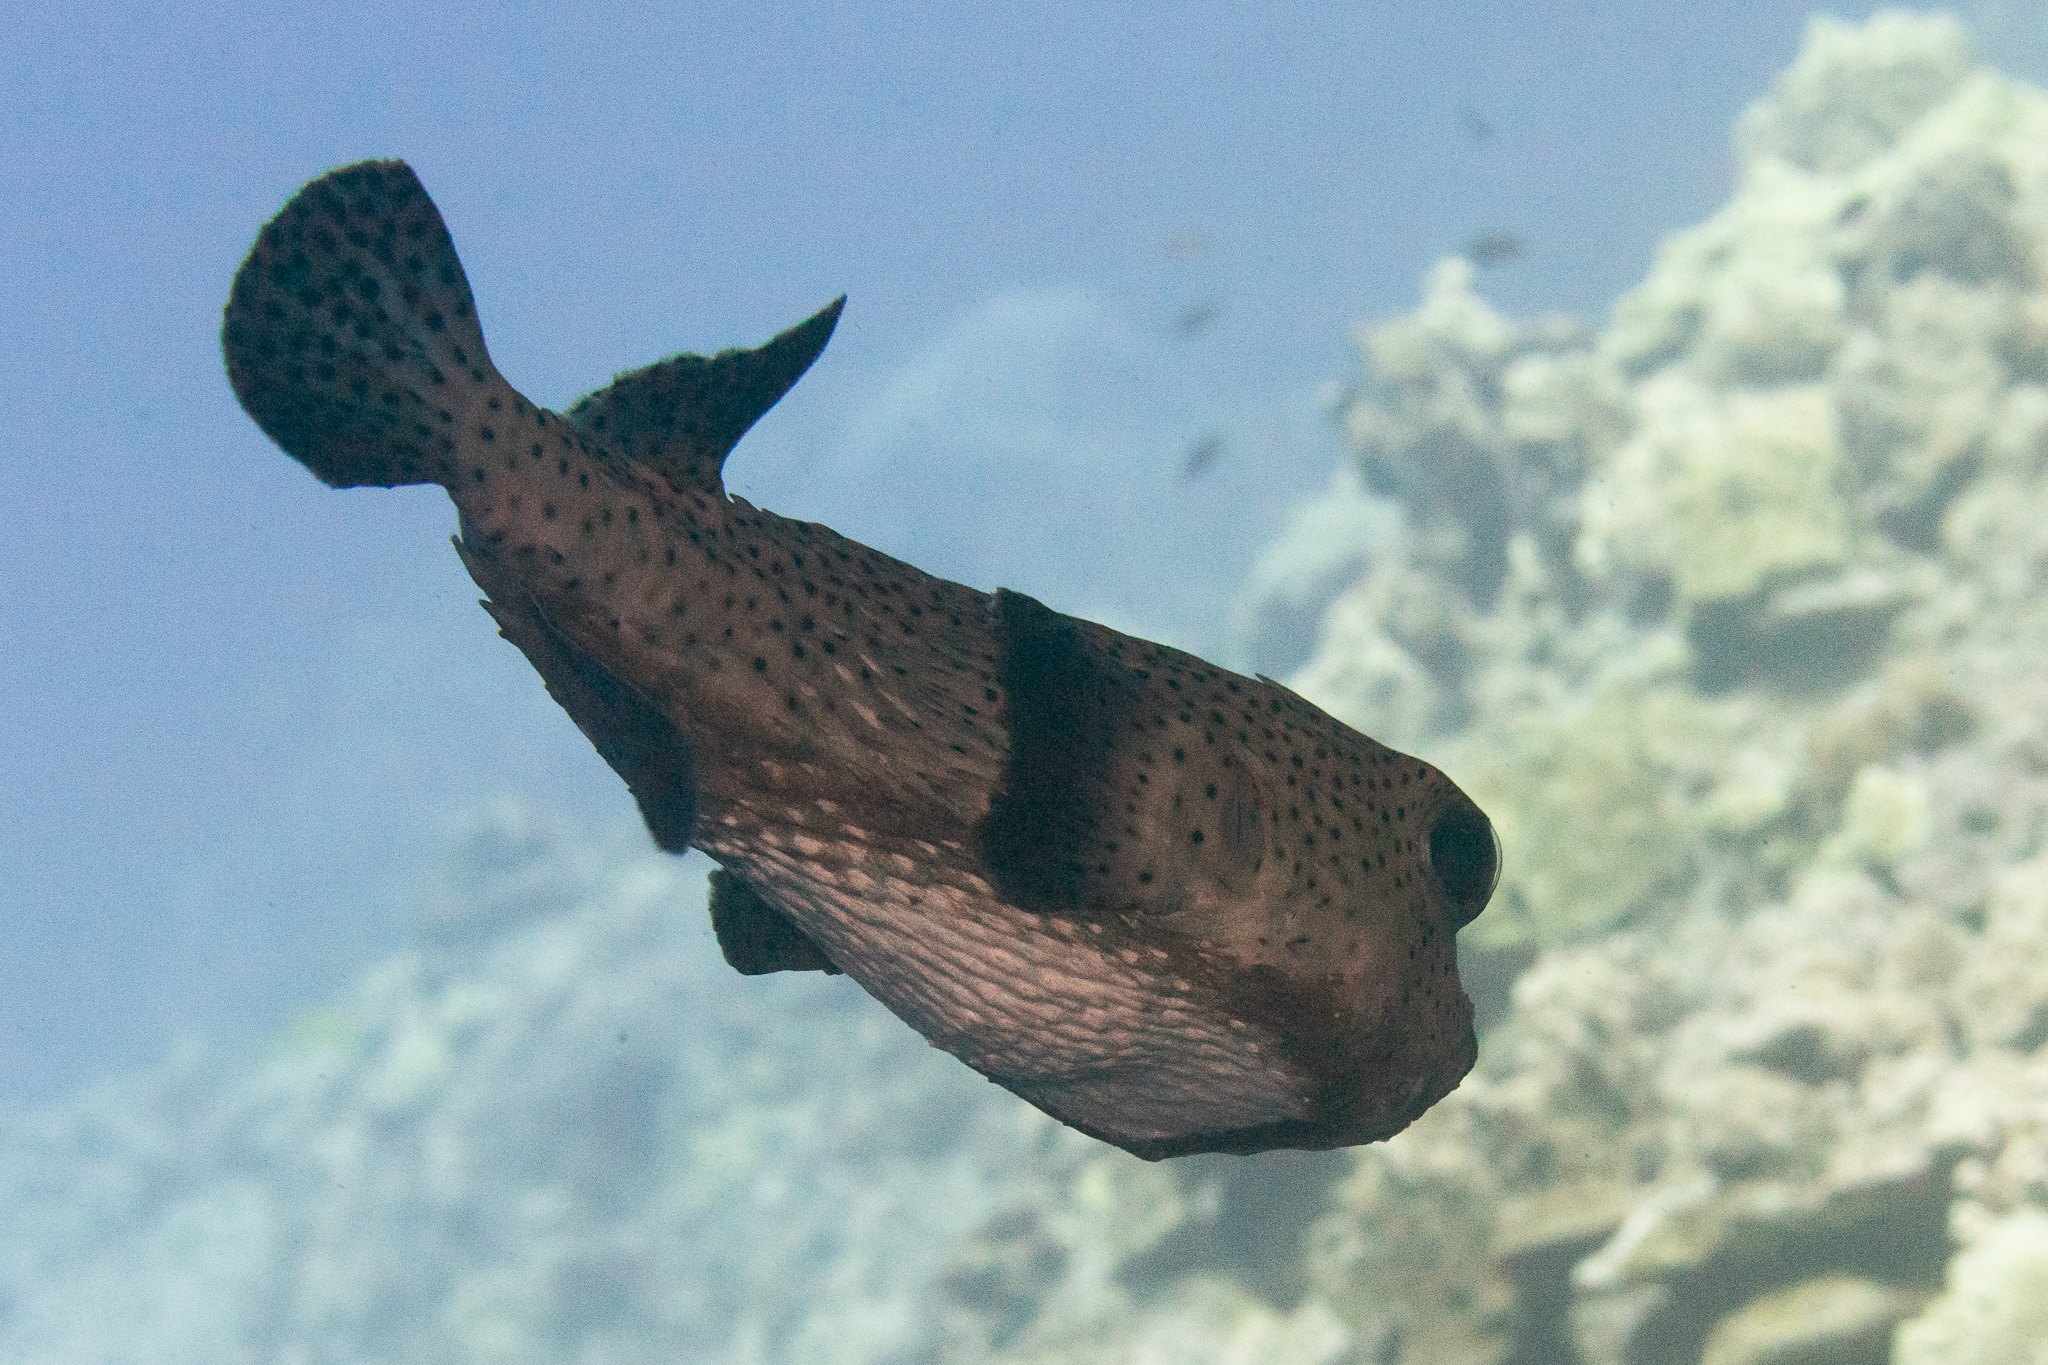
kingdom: Animalia
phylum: Chordata
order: Tetraodontiformes
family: Diodontidae
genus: Diodon
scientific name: Diodon hystrix
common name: Giant porcupinefish
